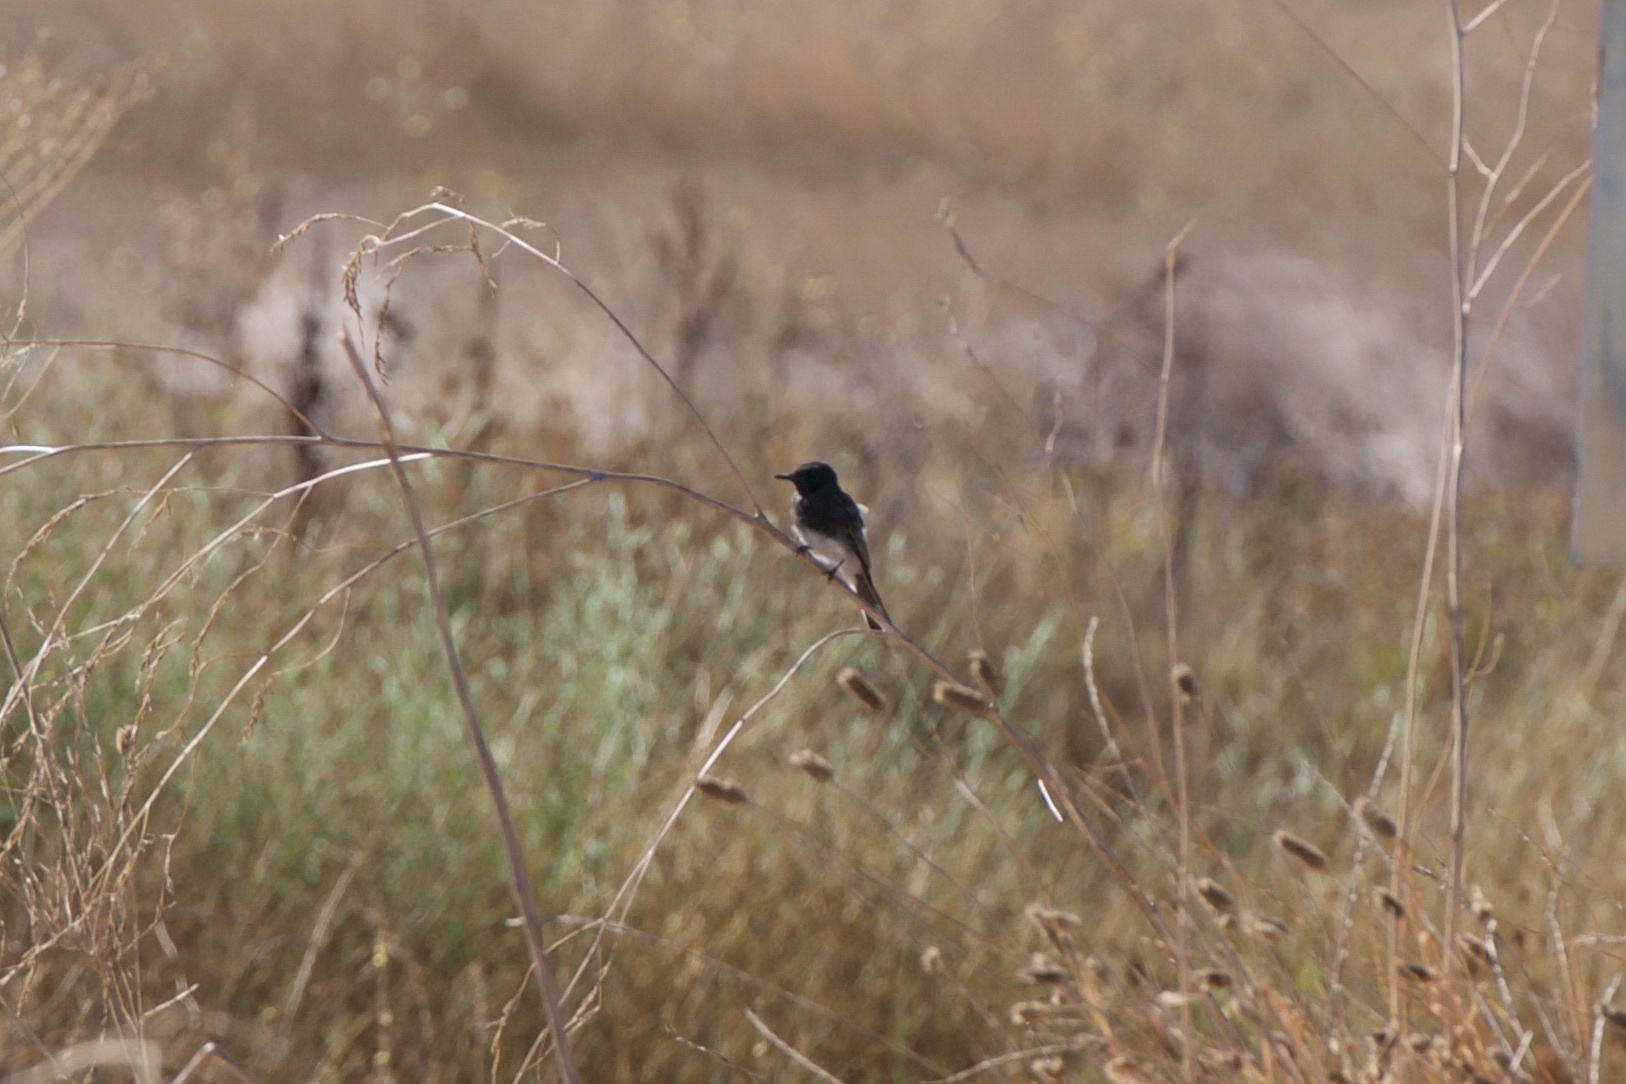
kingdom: Animalia
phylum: Chordata
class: Aves
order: Passeriformes
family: Tyrannidae
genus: Sayornis
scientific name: Sayornis nigricans
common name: Black phoebe
